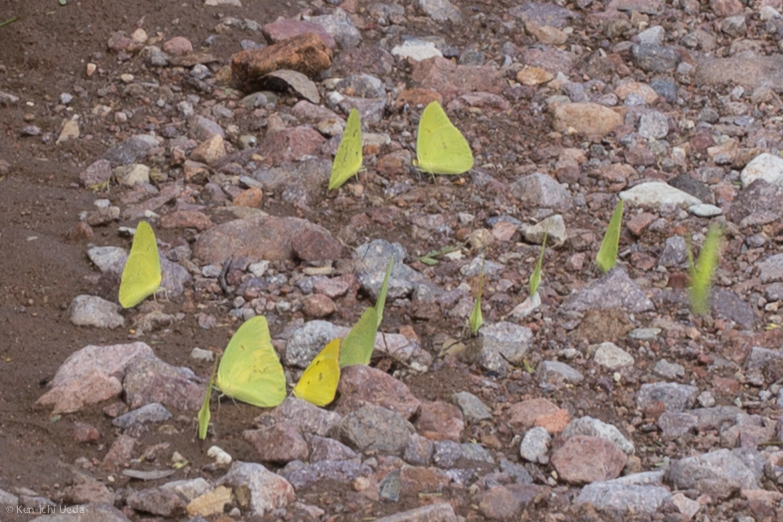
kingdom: Animalia
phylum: Arthropoda
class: Insecta
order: Lepidoptera
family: Pieridae
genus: Phoebis
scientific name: Phoebis sennae
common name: Cloudless sulphur
